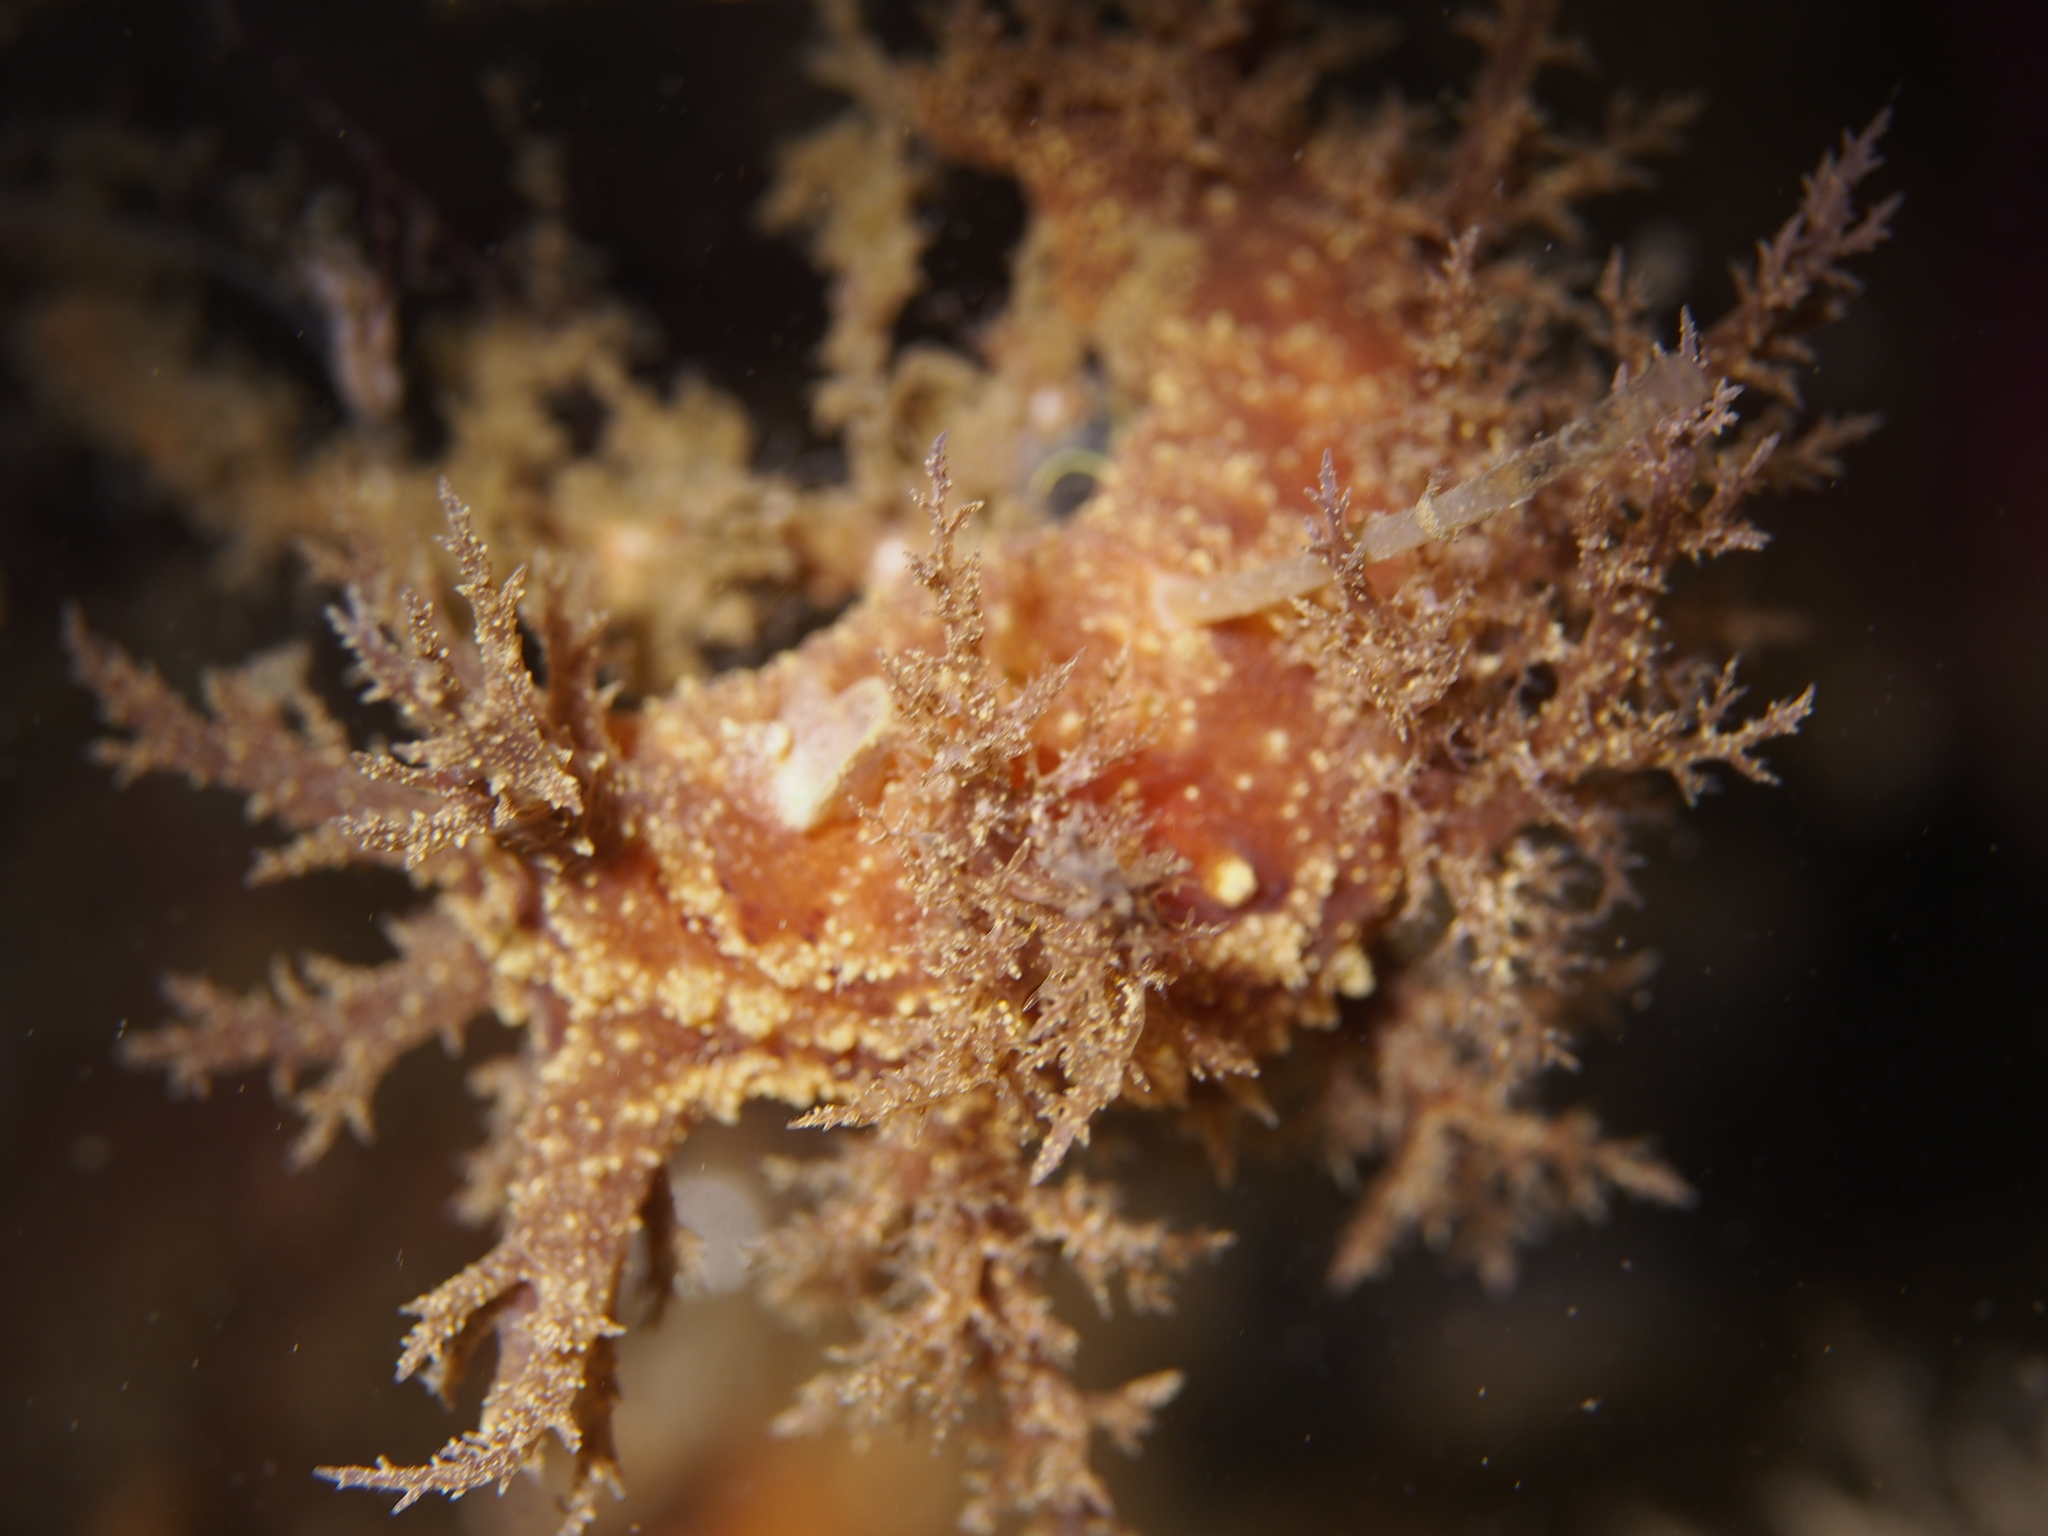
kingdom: Animalia
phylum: Mollusca
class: Gastropoda
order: Nudibranchia
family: Dendronotidae
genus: Dendronotus
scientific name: Dendronotus frondosus
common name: Bushy-backed nudibranch
